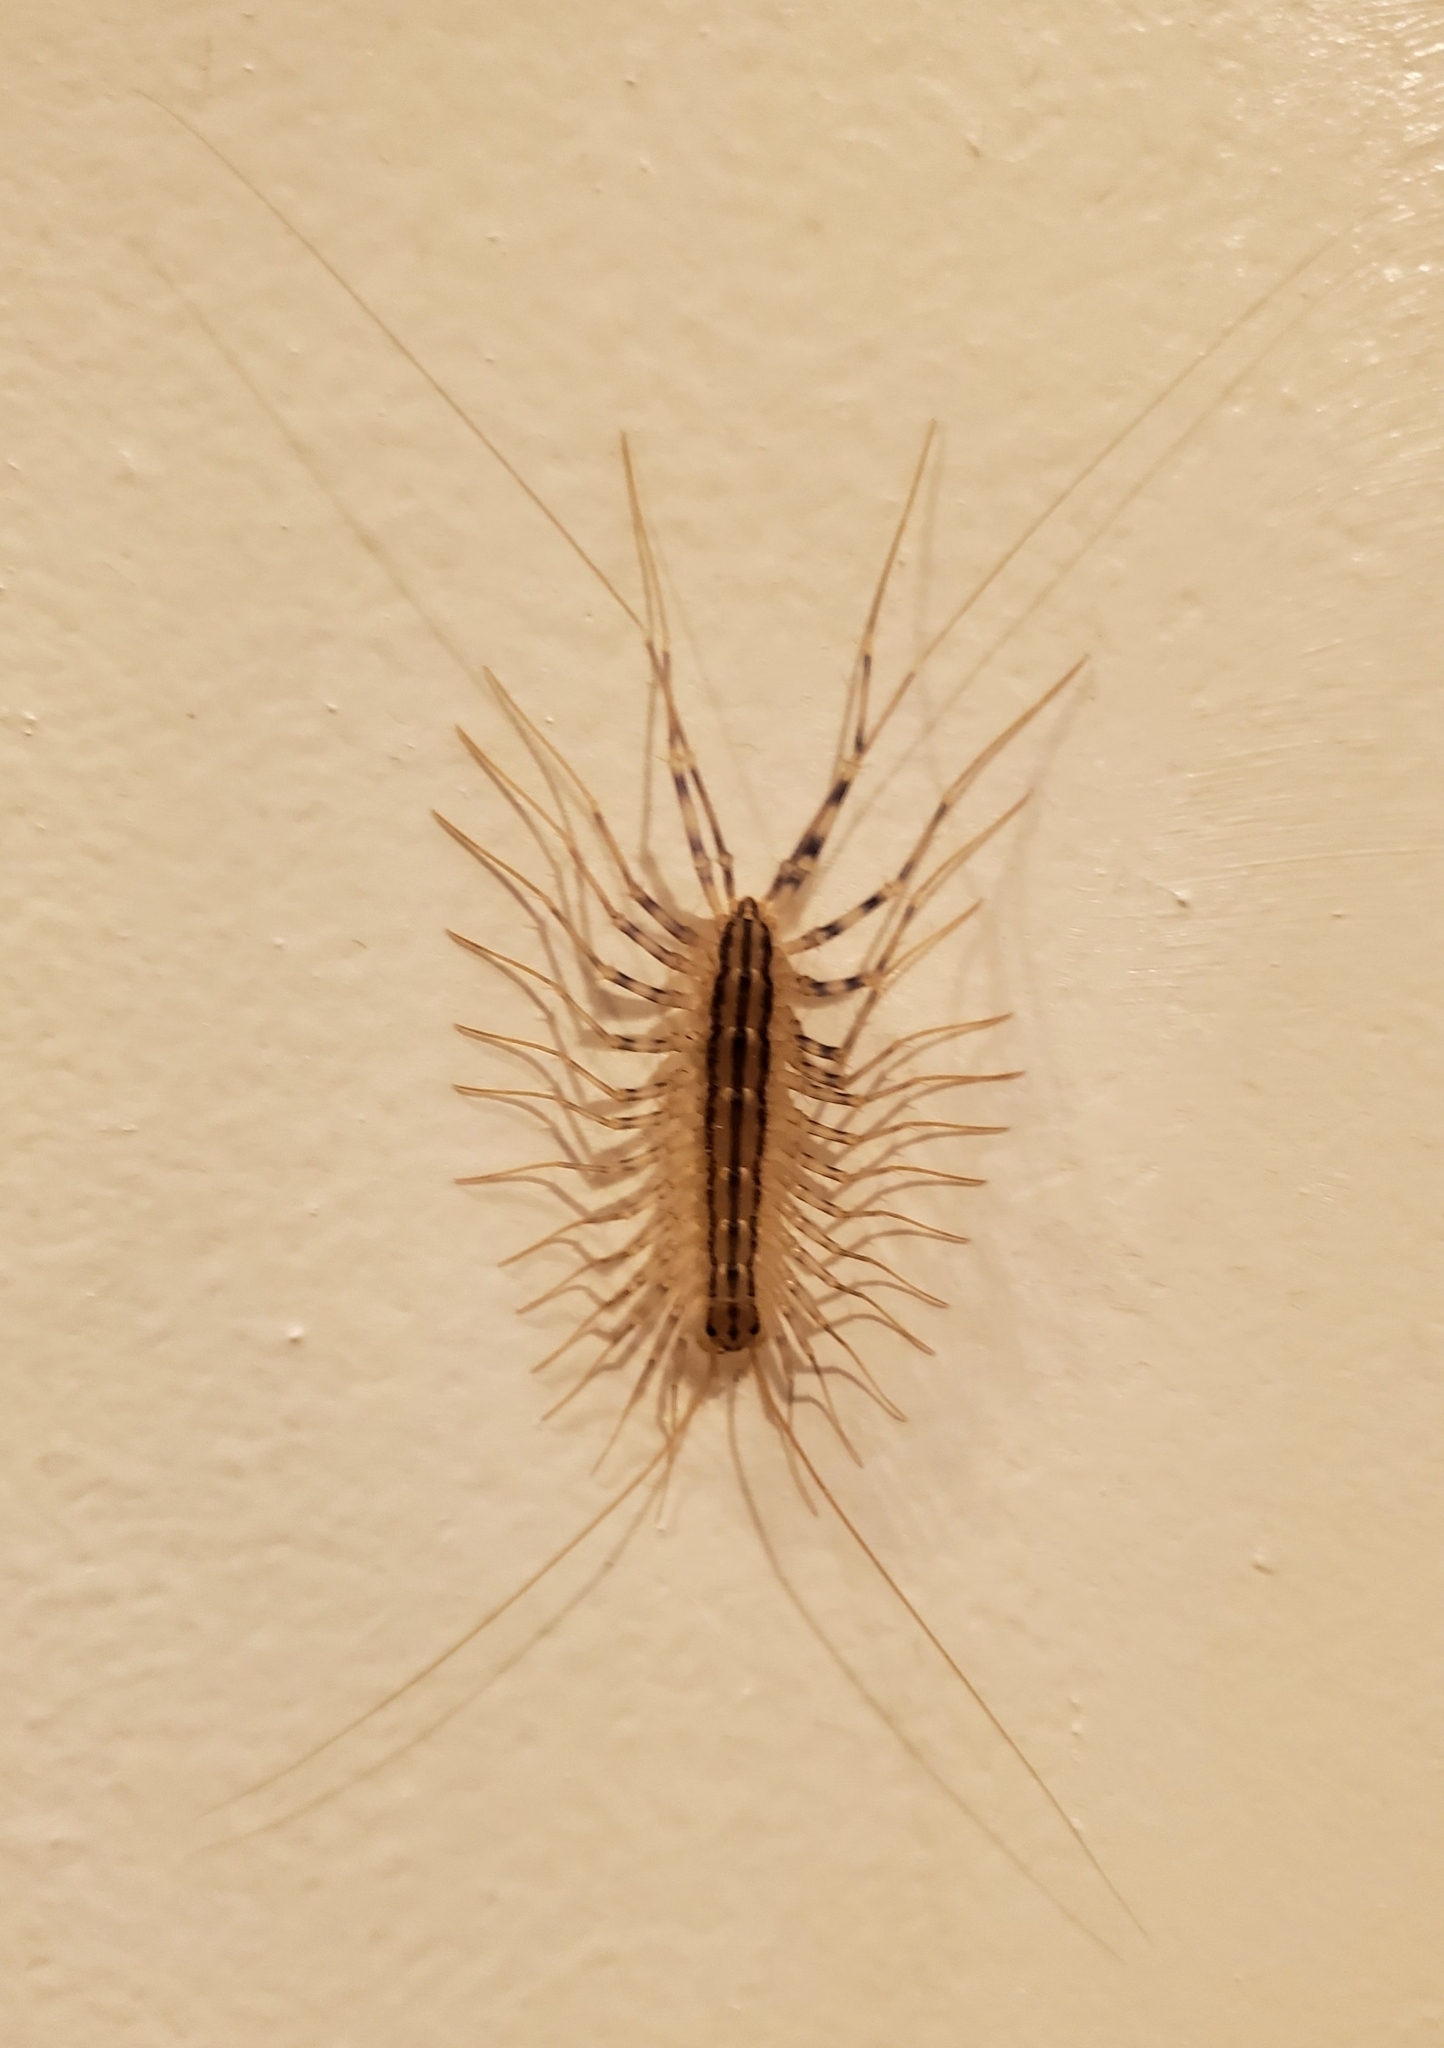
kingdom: Animalia
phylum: Arthropoda
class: Chilopoda
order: Scutigeromorpha
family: Scutigeridae
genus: Scutigera
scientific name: Scutigera coleoptrata
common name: House centipede
